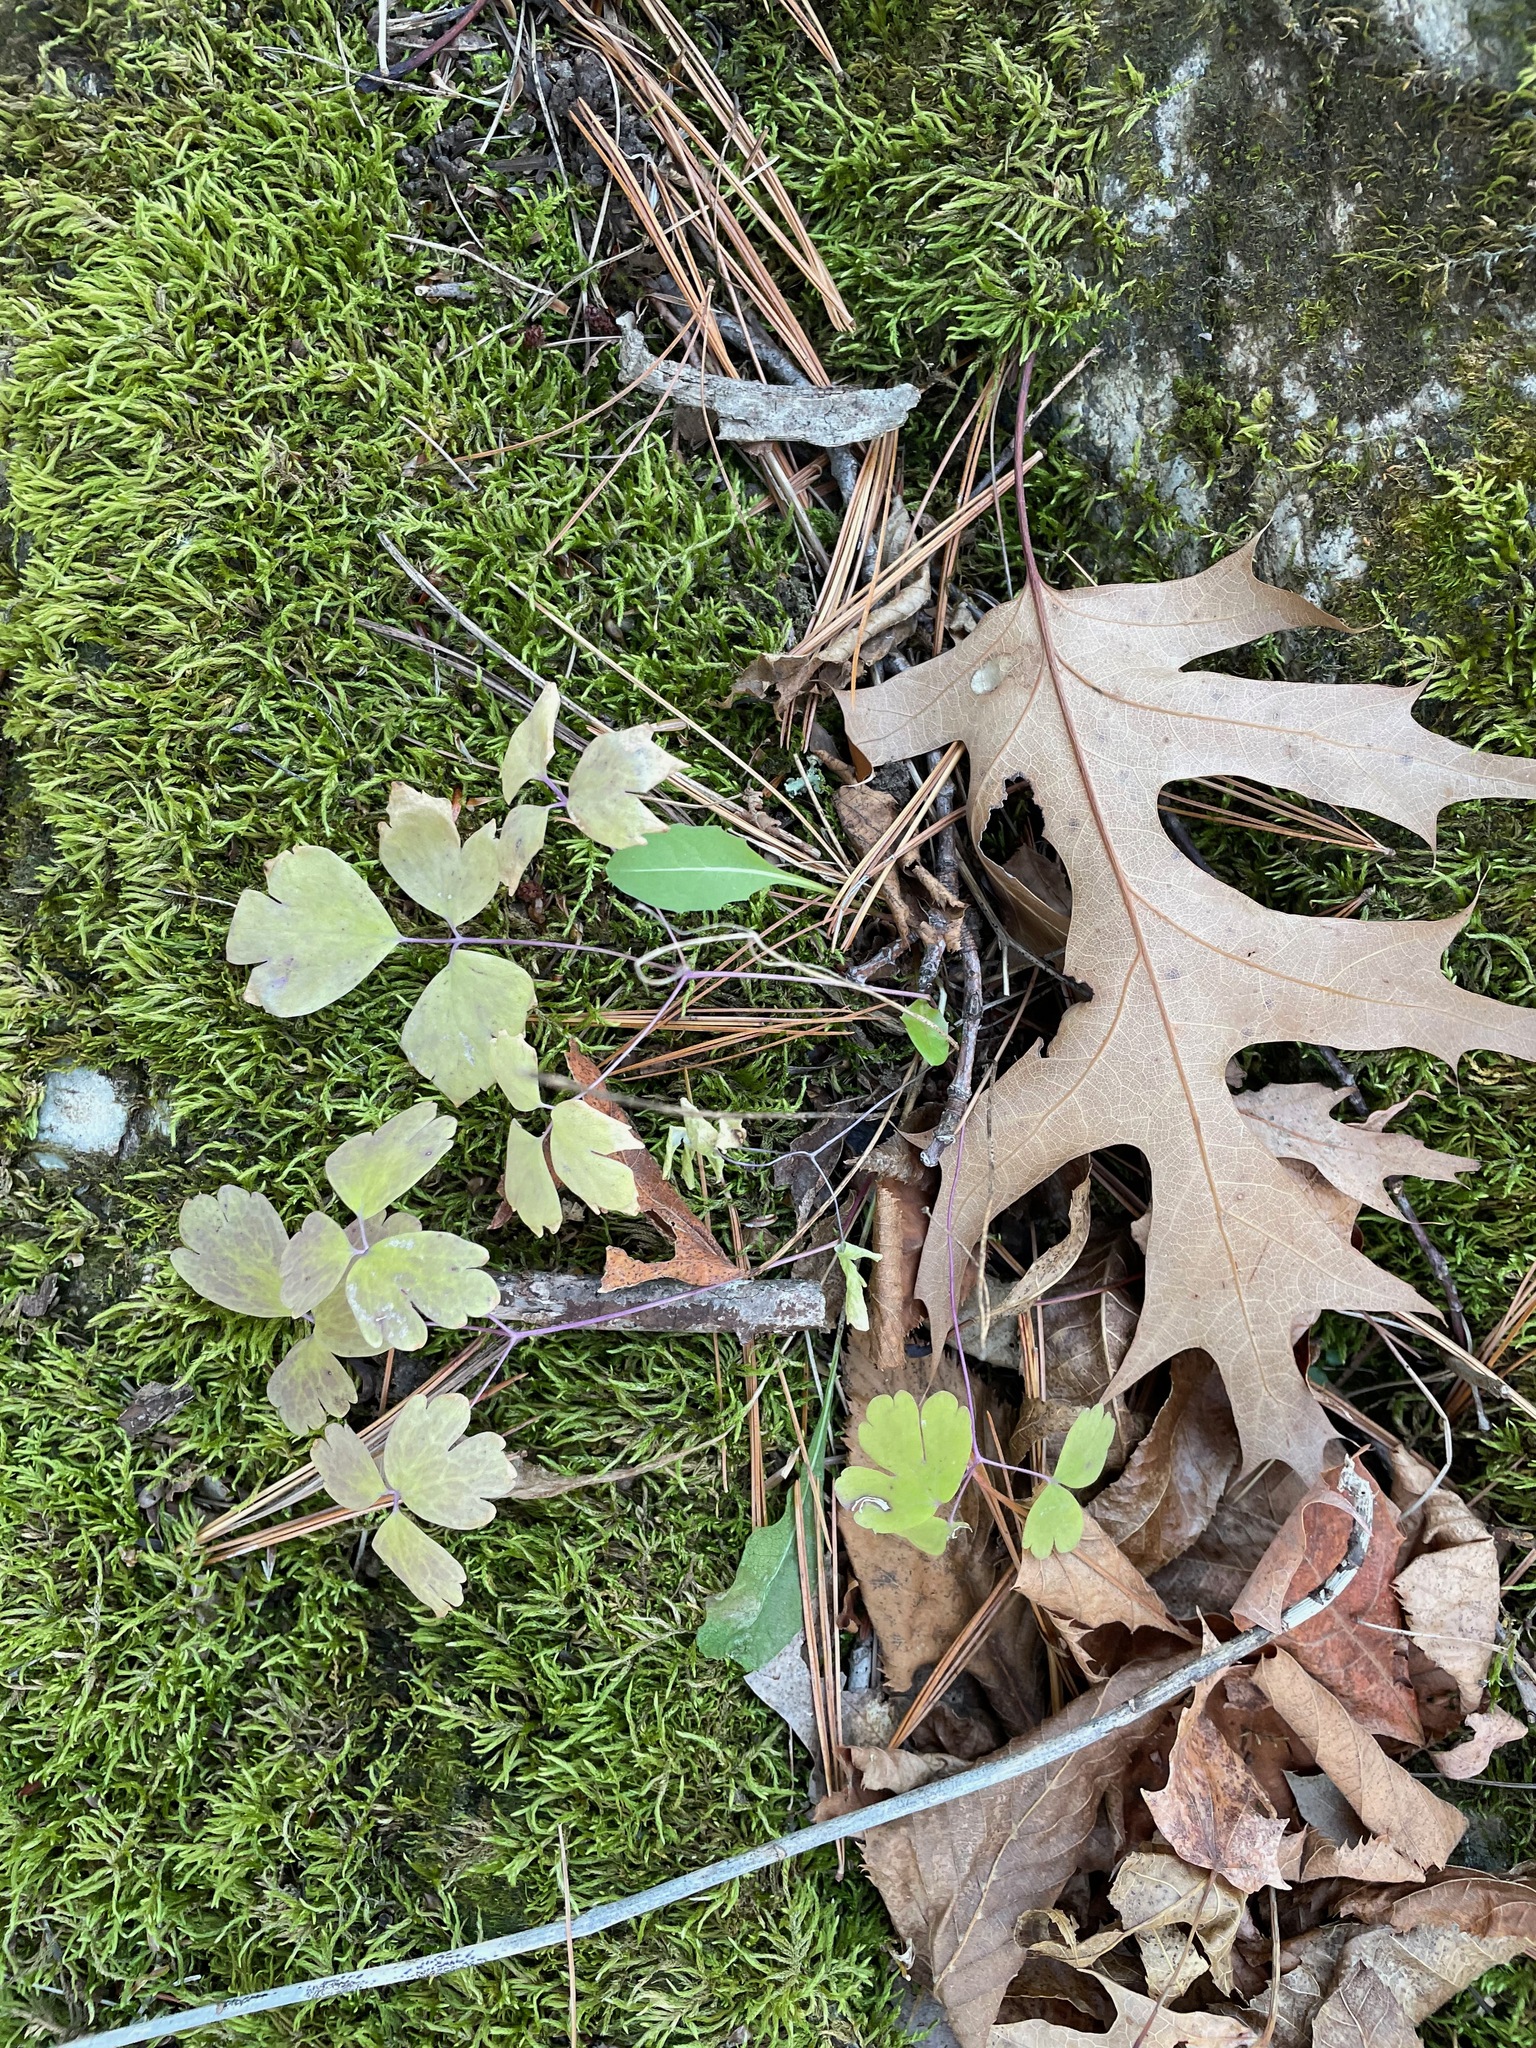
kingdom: Plantae
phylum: Tracheophyta
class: Magnoliopsida
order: Ranunculales
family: Ranunculaceae
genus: Aquilegia
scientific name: Aquilegia canadensis
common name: American columbine
